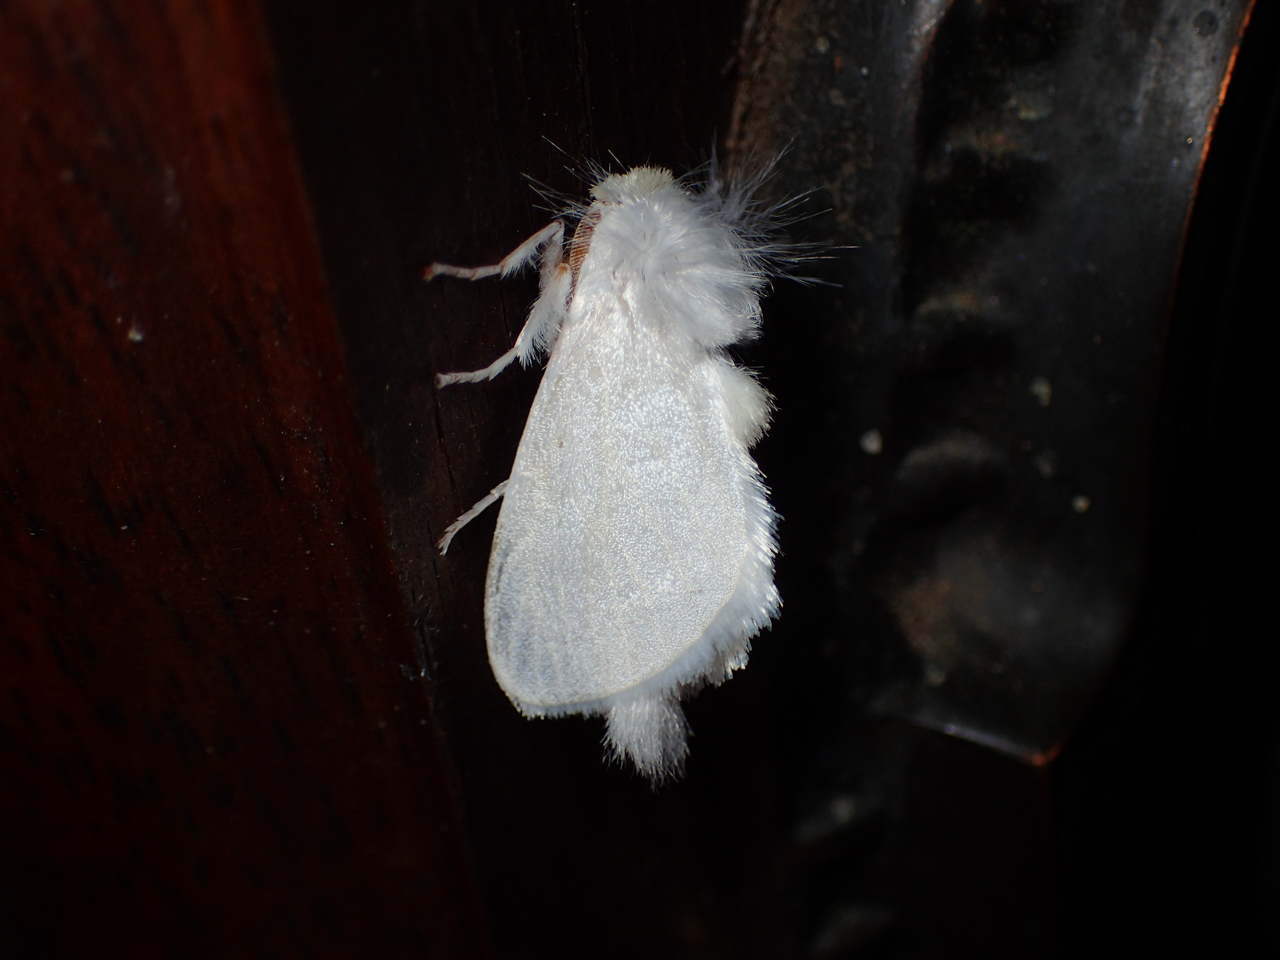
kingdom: Animalia
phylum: Arthropoda
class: Insecta
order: Lepidoptera
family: Megalopygidae
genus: Norape
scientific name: Norape cretata
